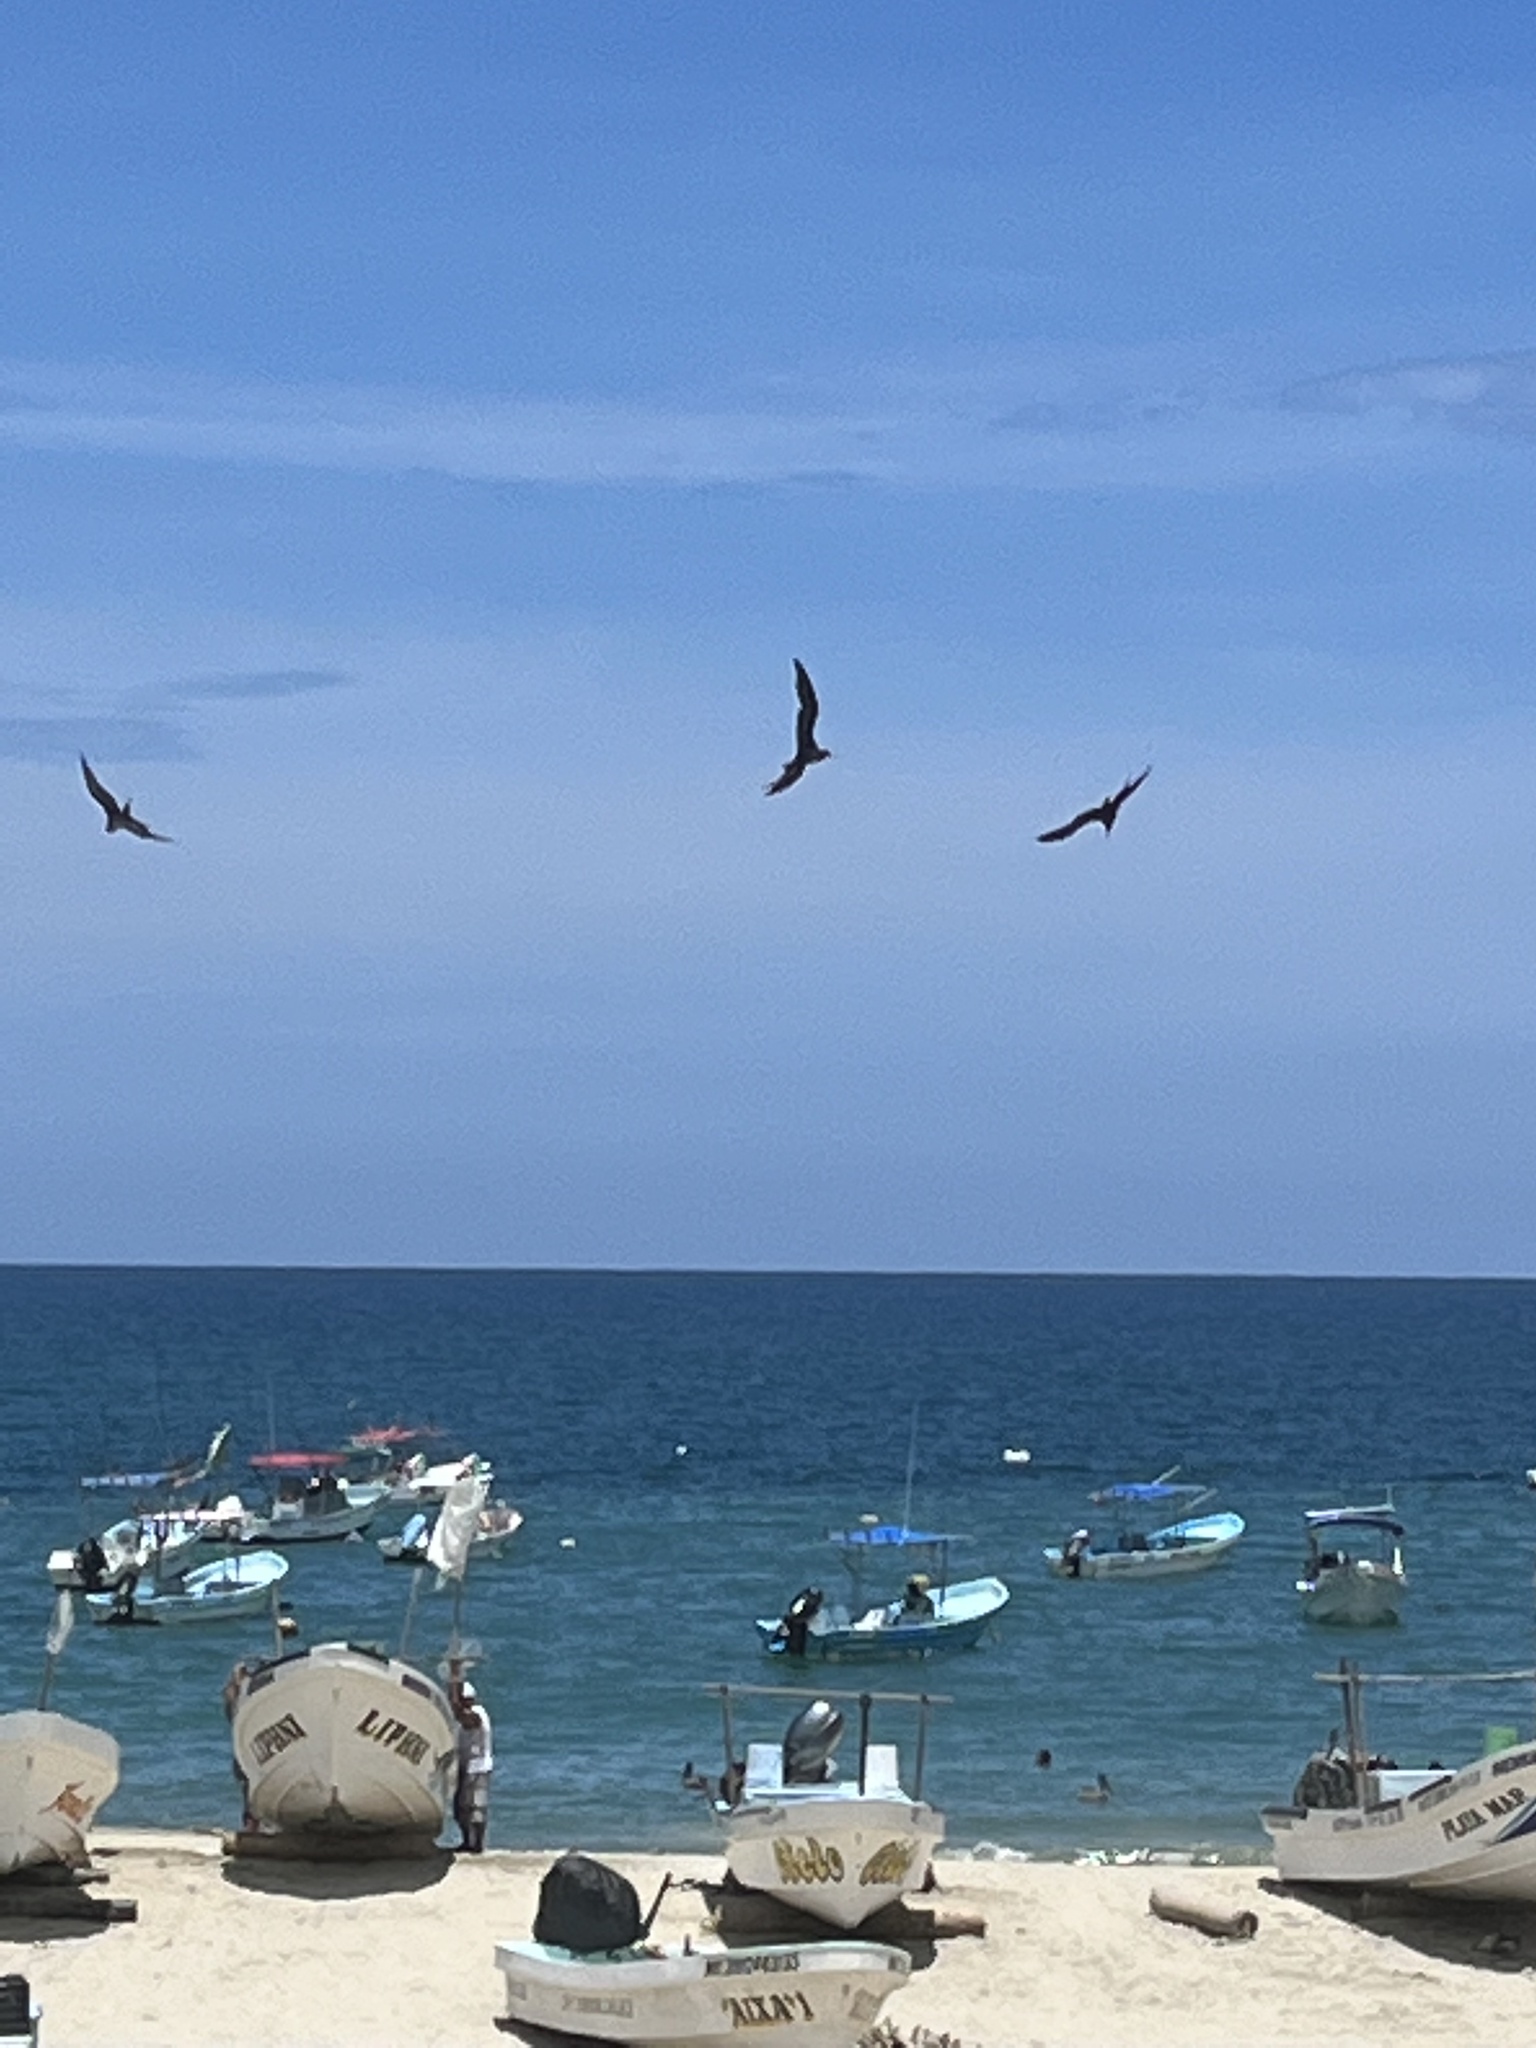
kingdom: Animalia
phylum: Chordata
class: Aves
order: Suliformes
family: Fregatidae
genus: Fregata
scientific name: Fregata magnificens
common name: Magnificent frigatebird
